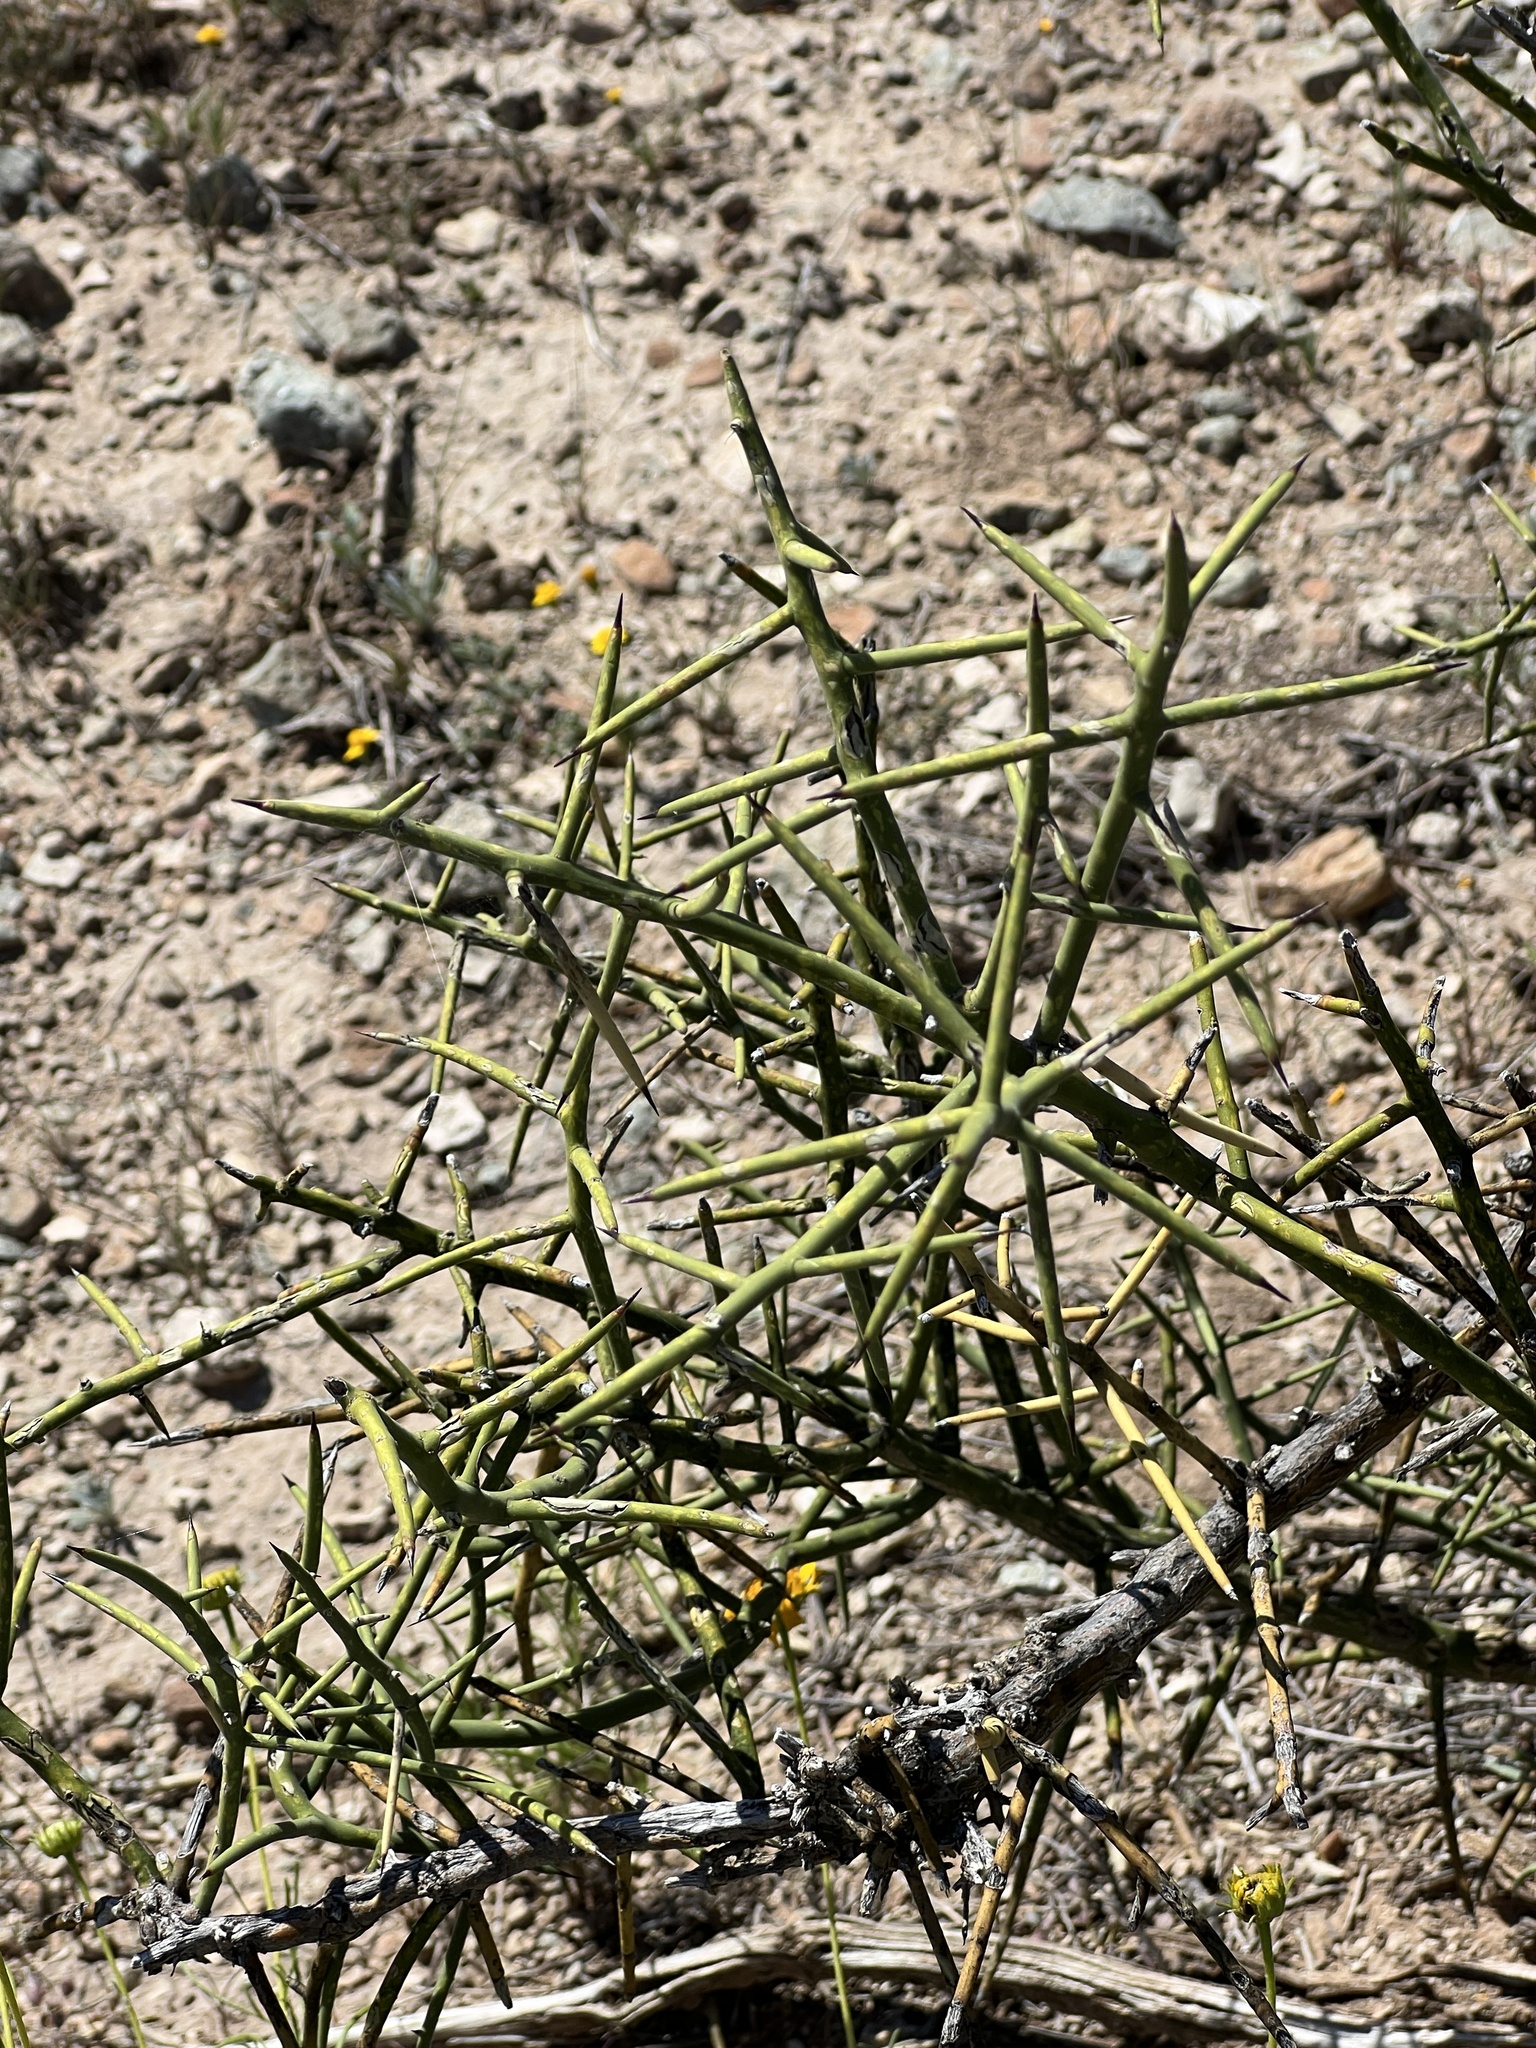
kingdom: Plantae
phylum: Tracheophyta
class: Magnoliopsida
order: Brassicales
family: Koeberliniaceae
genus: Koeberlinia
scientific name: Koeberlinia spinosa
